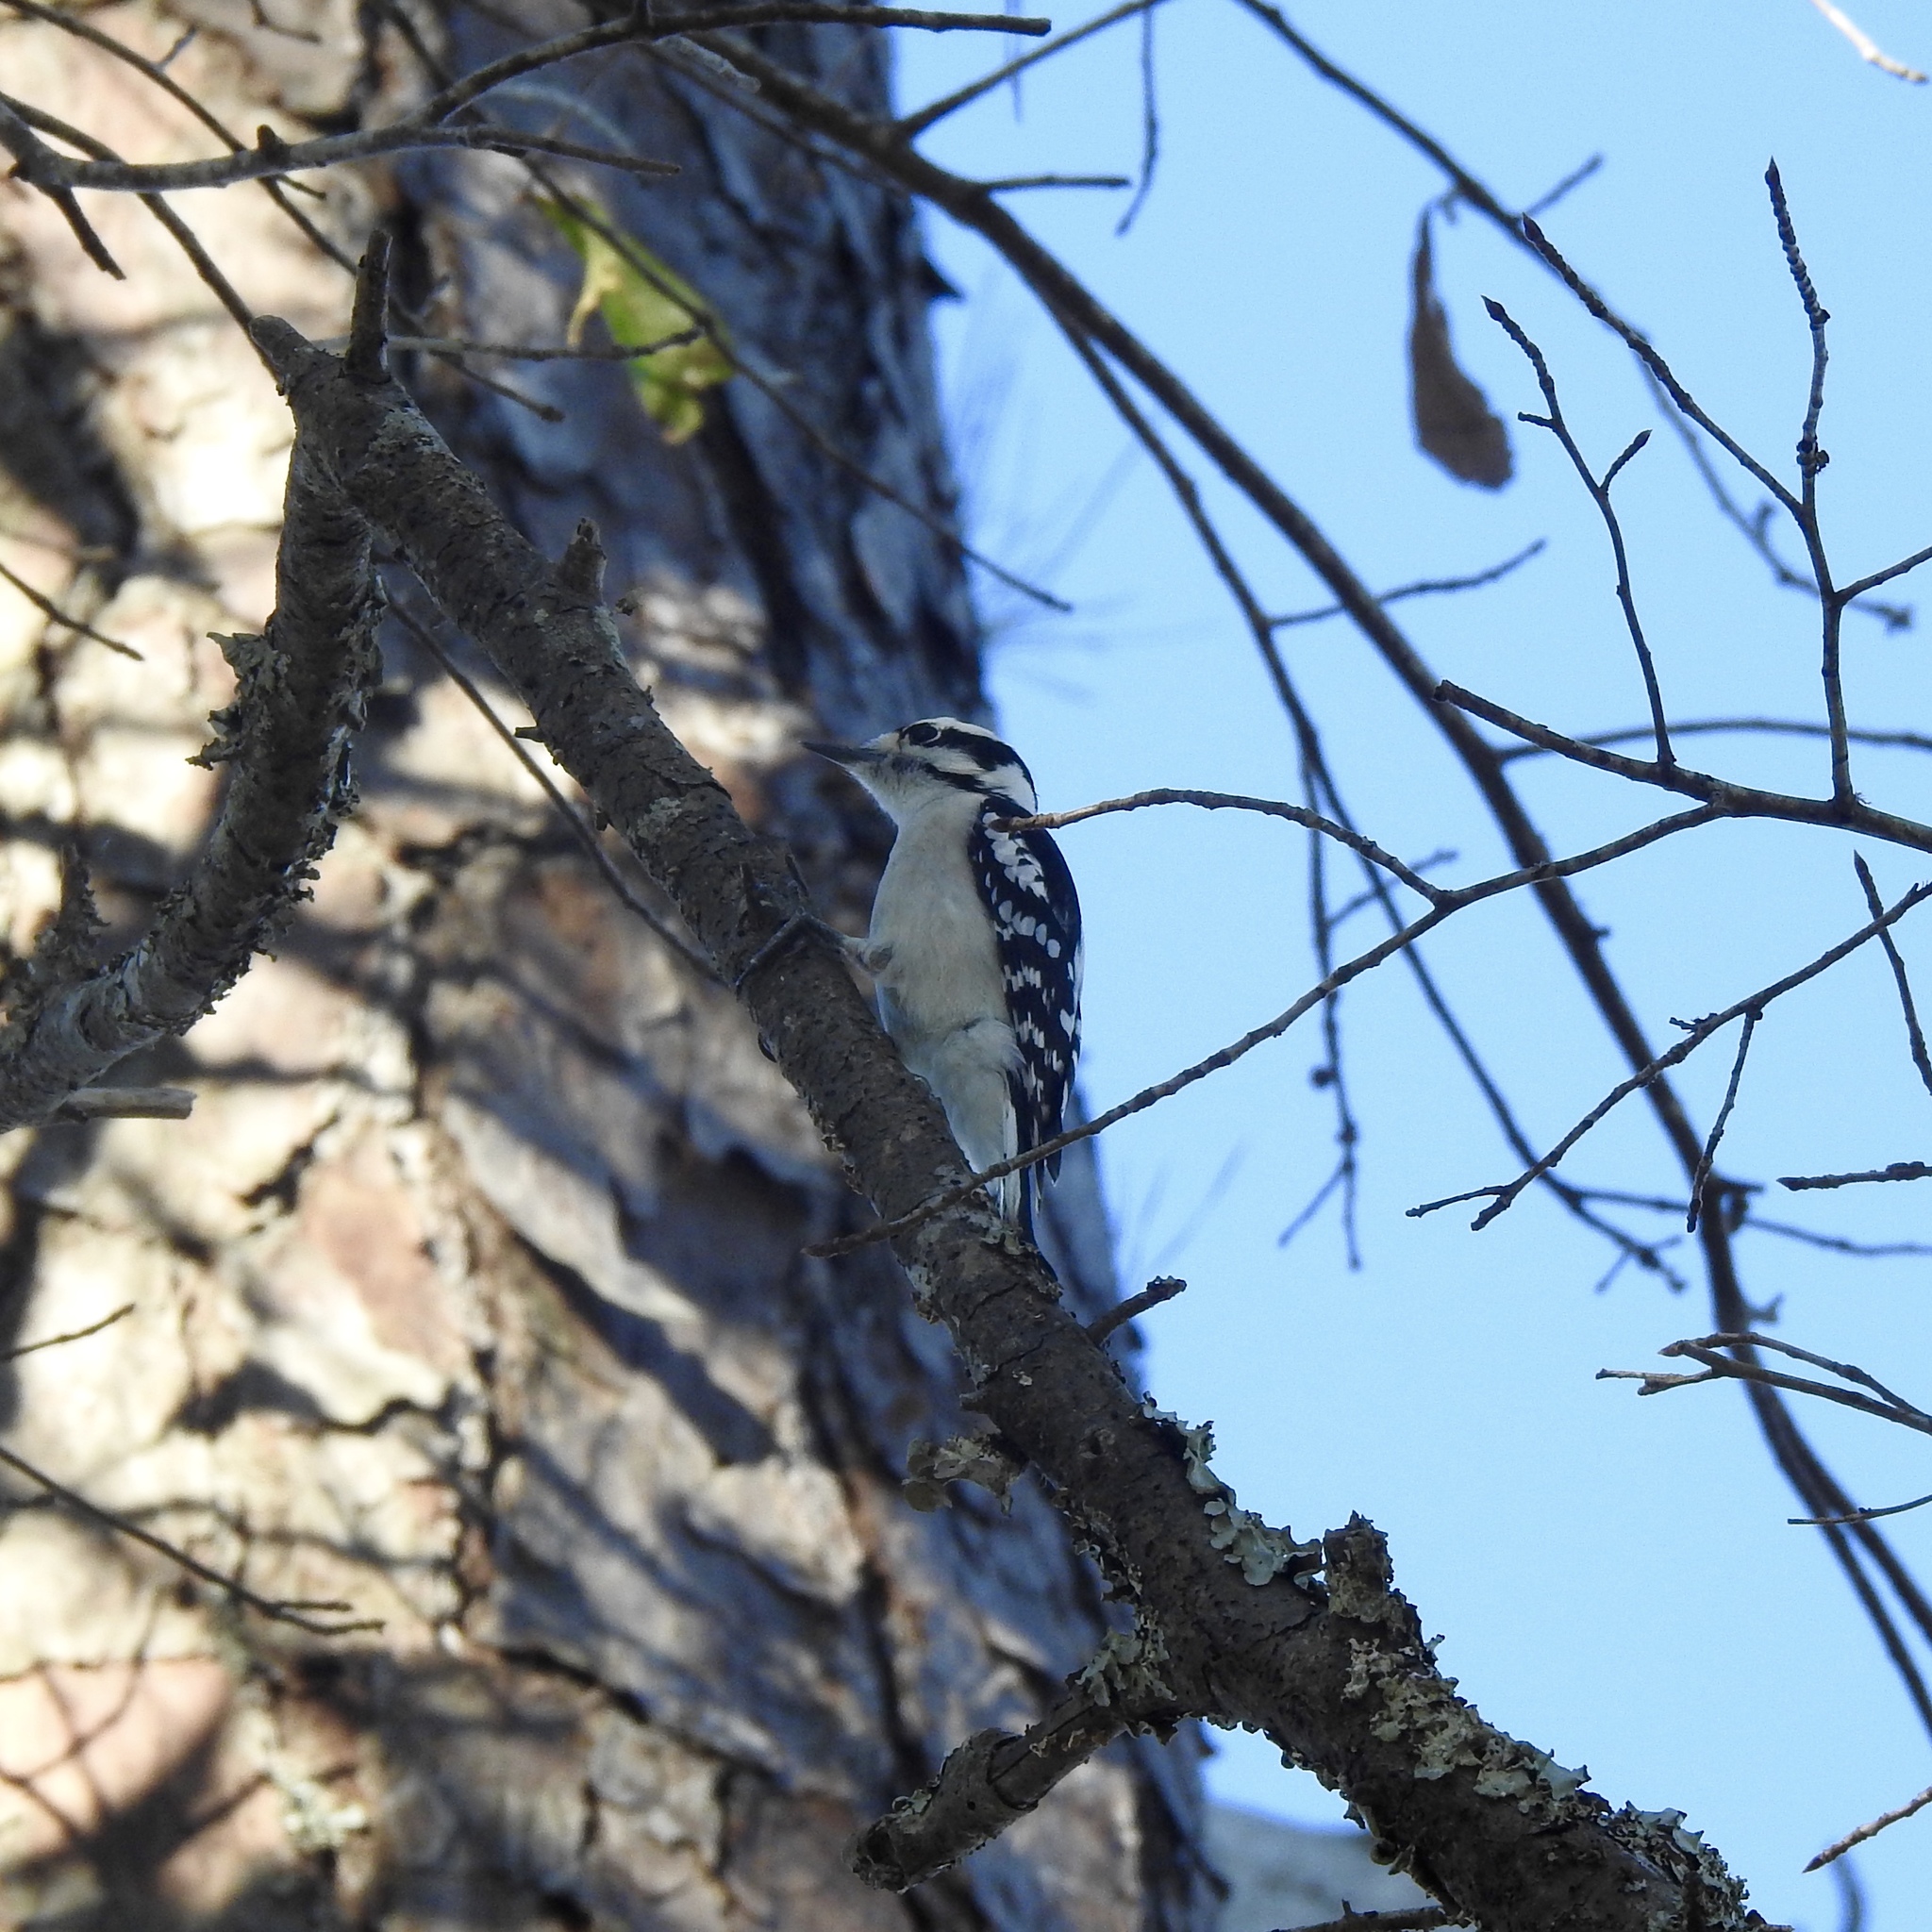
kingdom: Animalia
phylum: Chordata
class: Aves
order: Piciformes
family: Picidae
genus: Dryobates
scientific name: Dryobates pubescens
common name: Downy woodpecker
